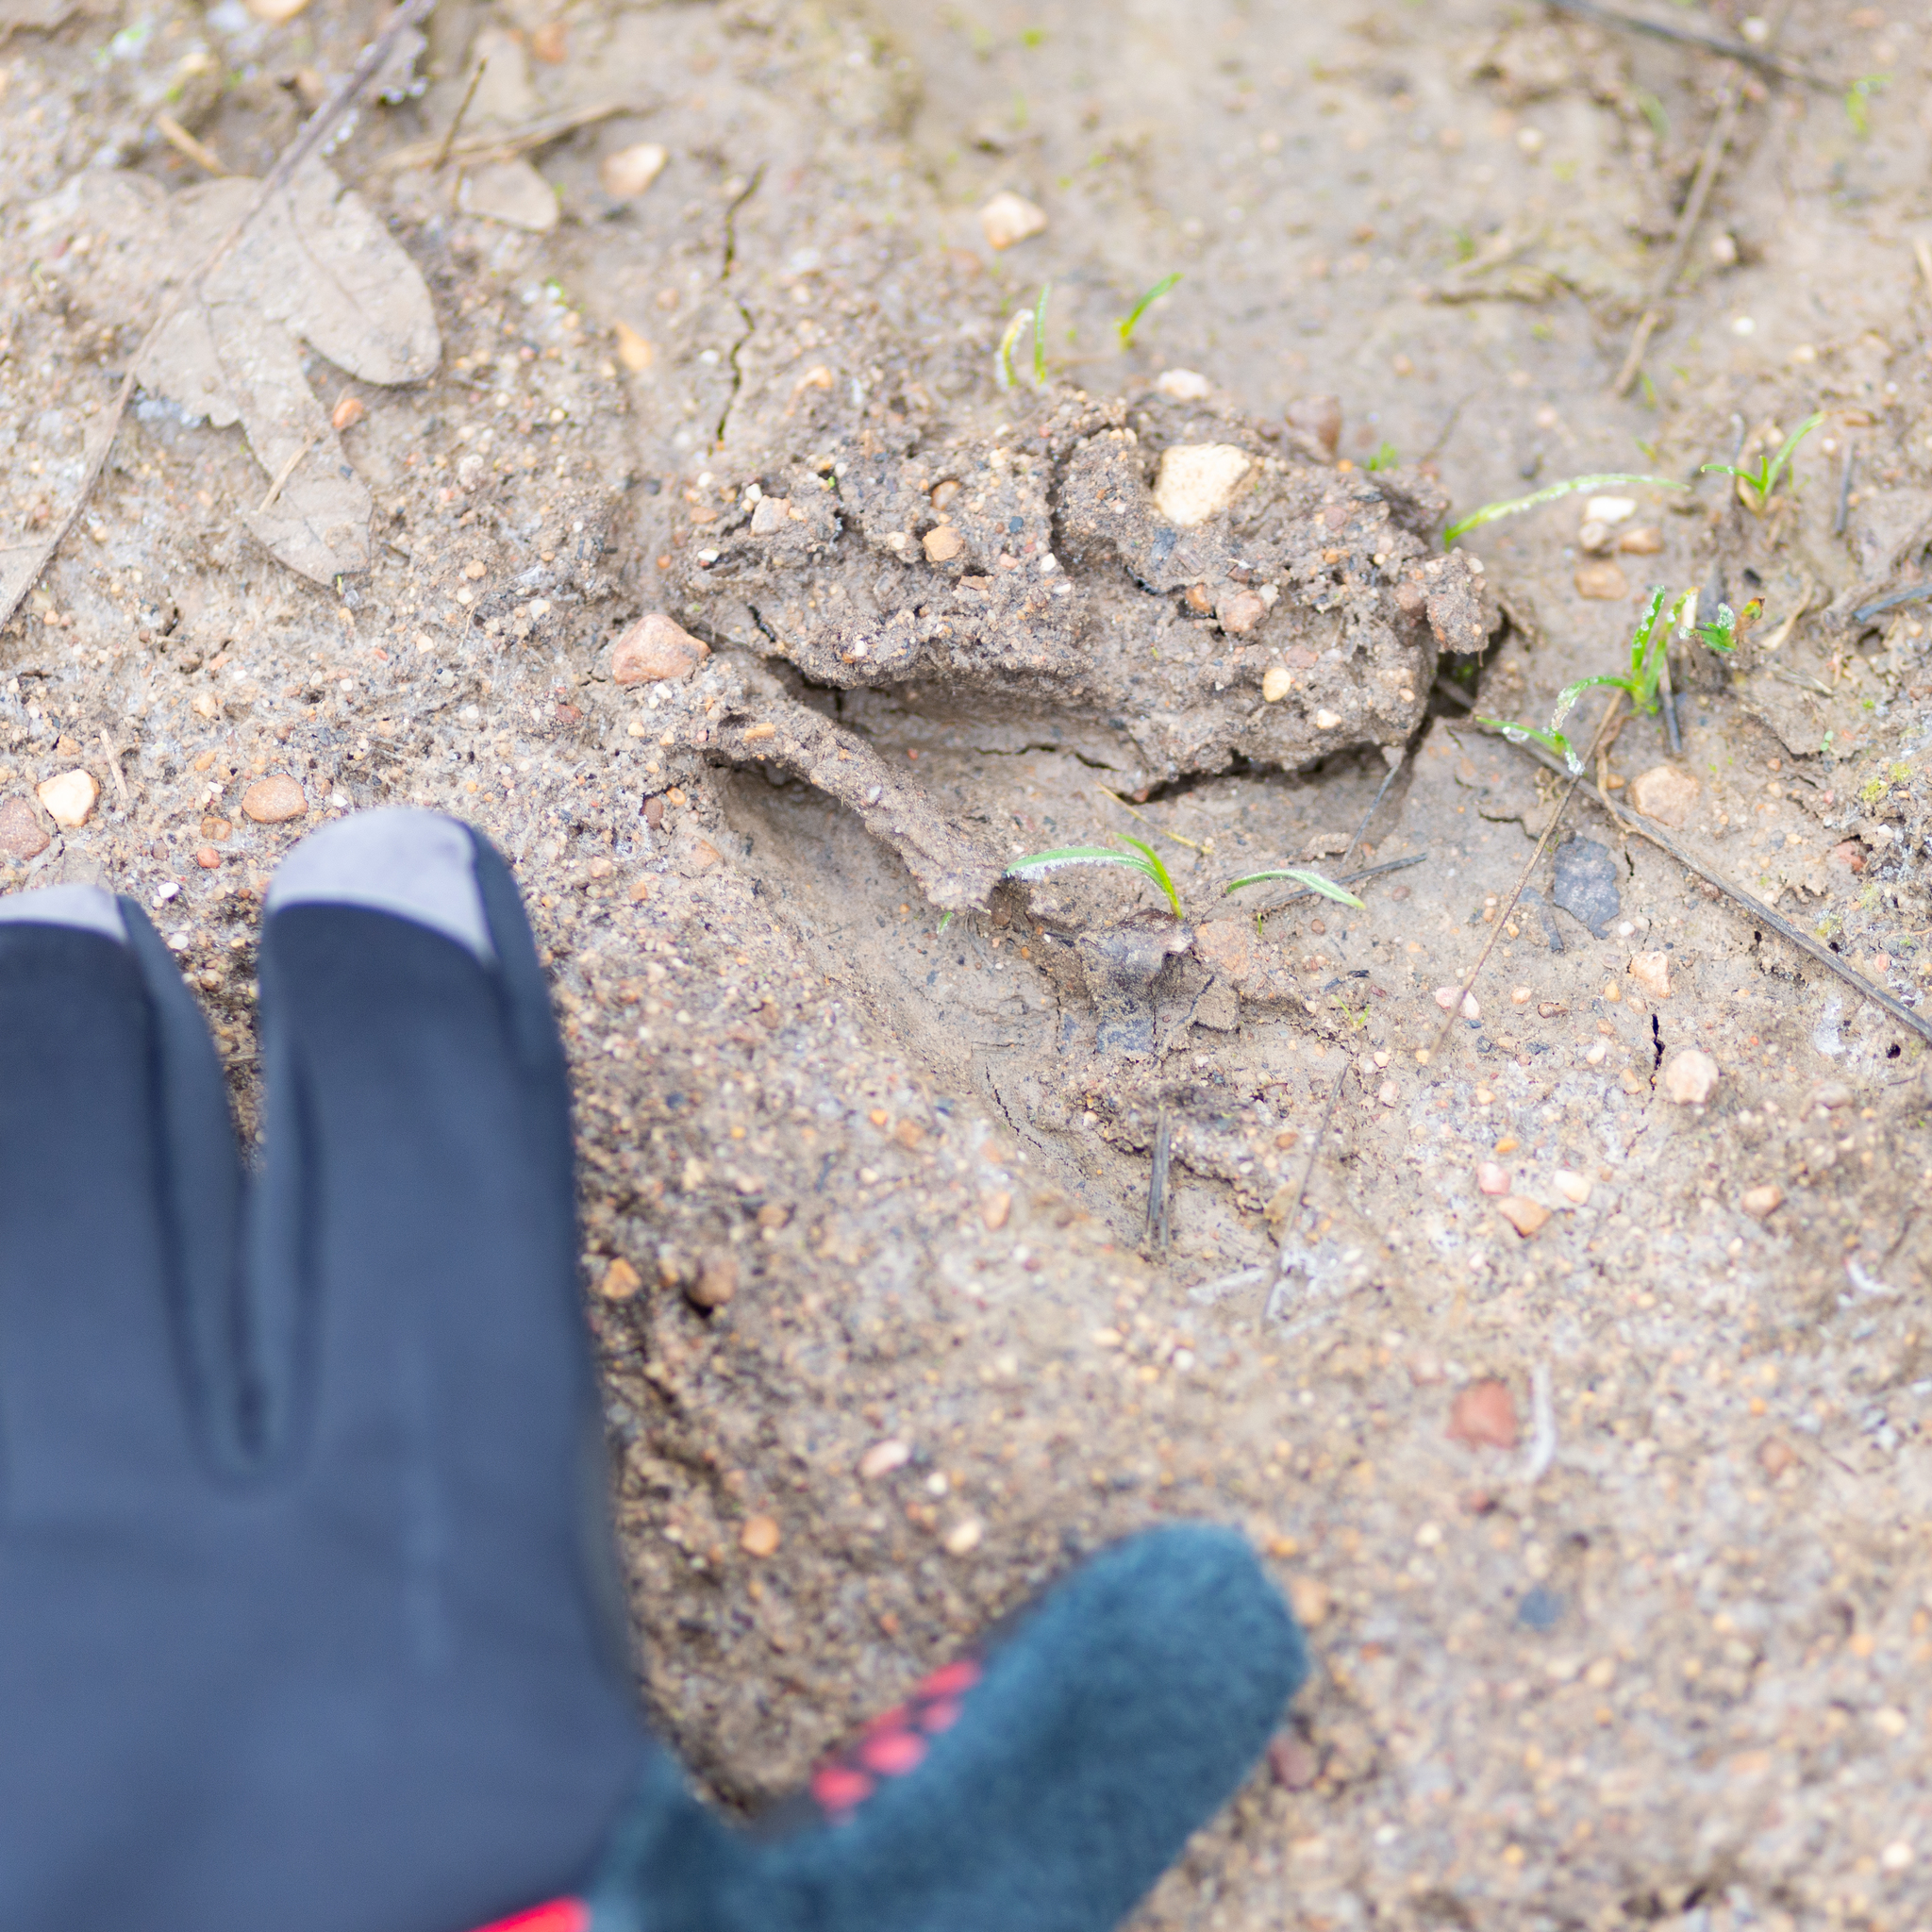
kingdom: Animalia
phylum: Chordata
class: Mammalia
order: Artiodactyla
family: Cervidae
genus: Capreolus
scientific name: Capreolus capreolus
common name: Western roe deer
